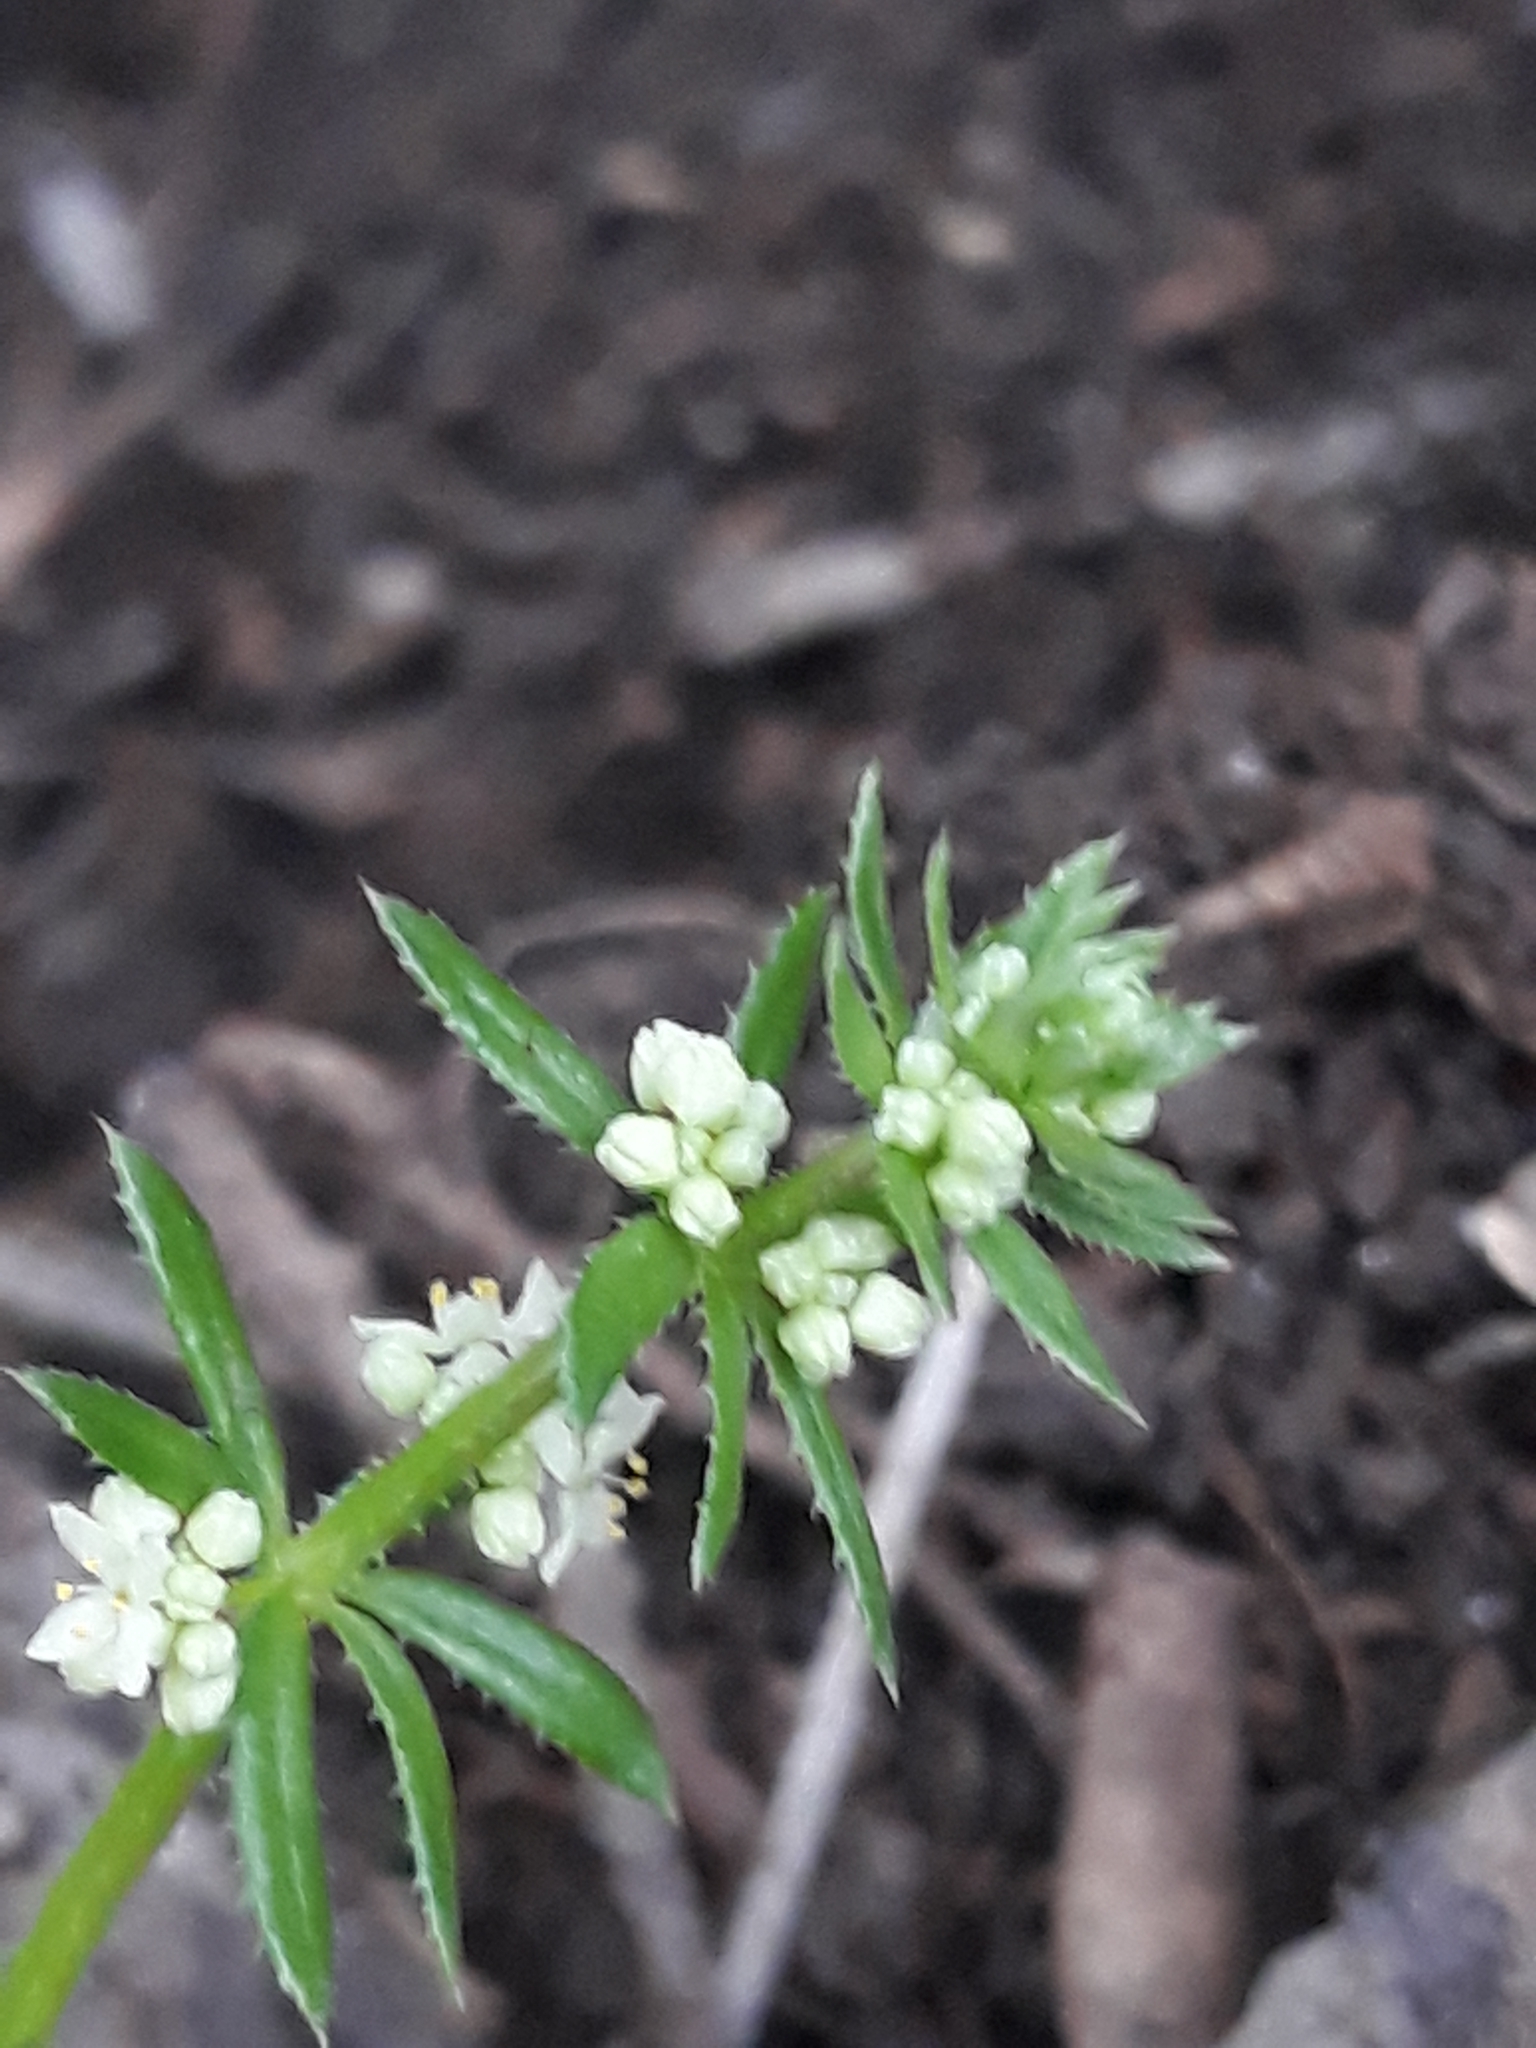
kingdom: Plantae
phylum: Tracheophyta
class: Magnoliopsida
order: Gentianales
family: Rubiaceae
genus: Galium
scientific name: Galium verrucosum
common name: Warty bedstraw
